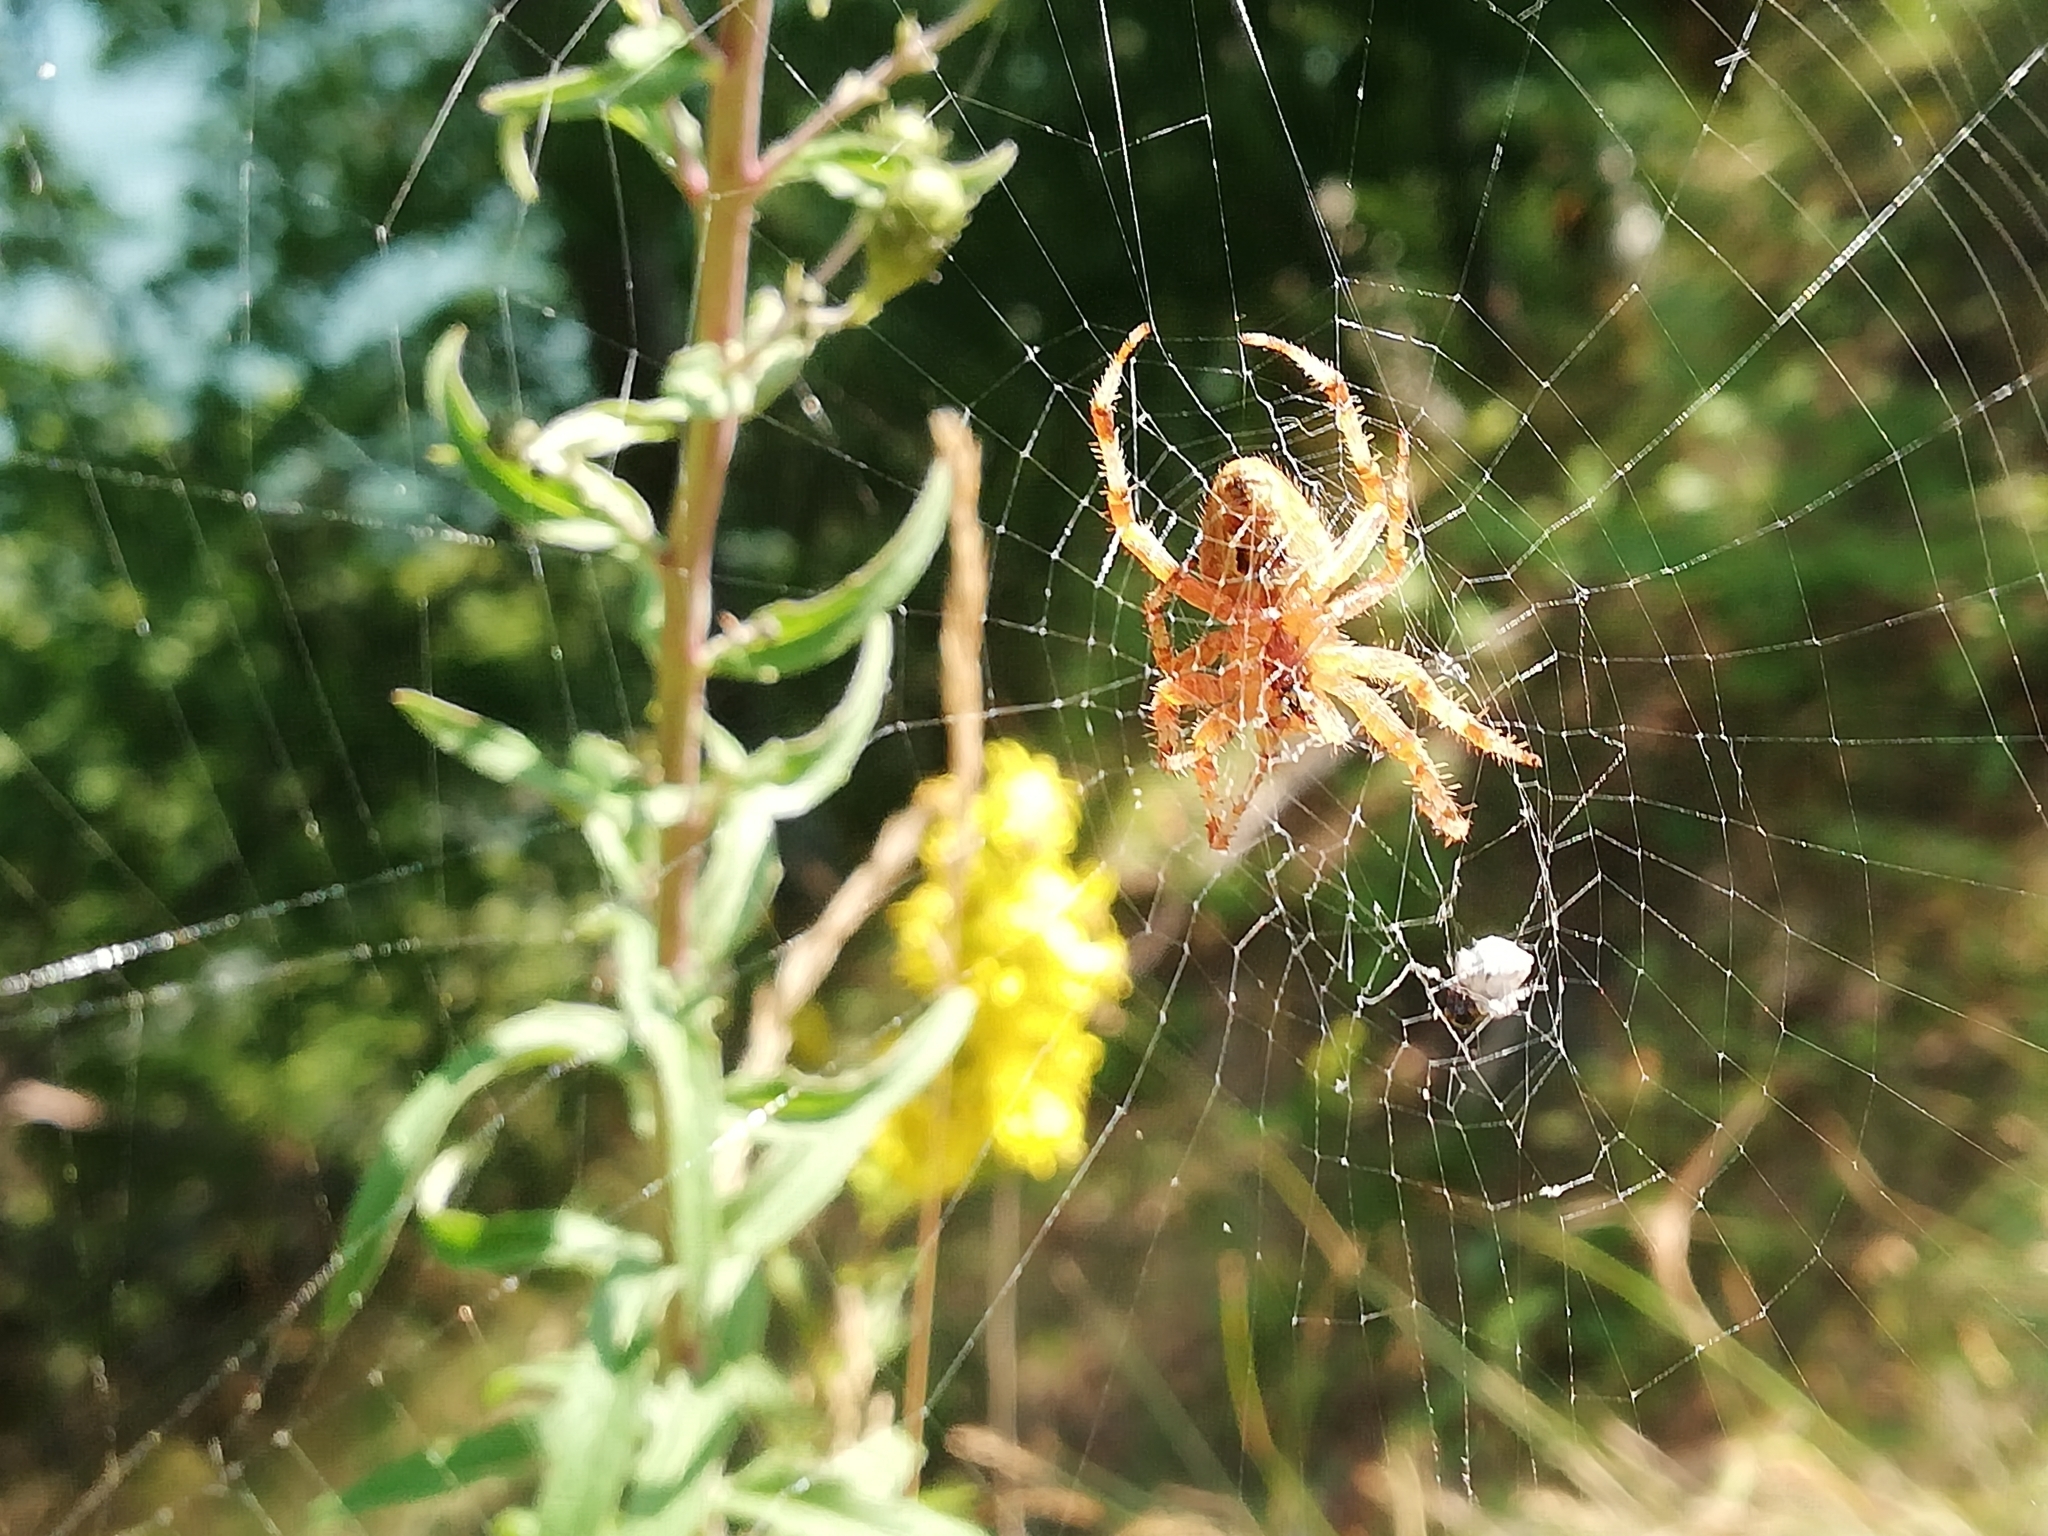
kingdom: Animalia
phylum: Arthropoda
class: Arachnida
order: Araneae
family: Araneidae
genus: Araneus
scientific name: Araneus diadematus
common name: Cross orbweaver
